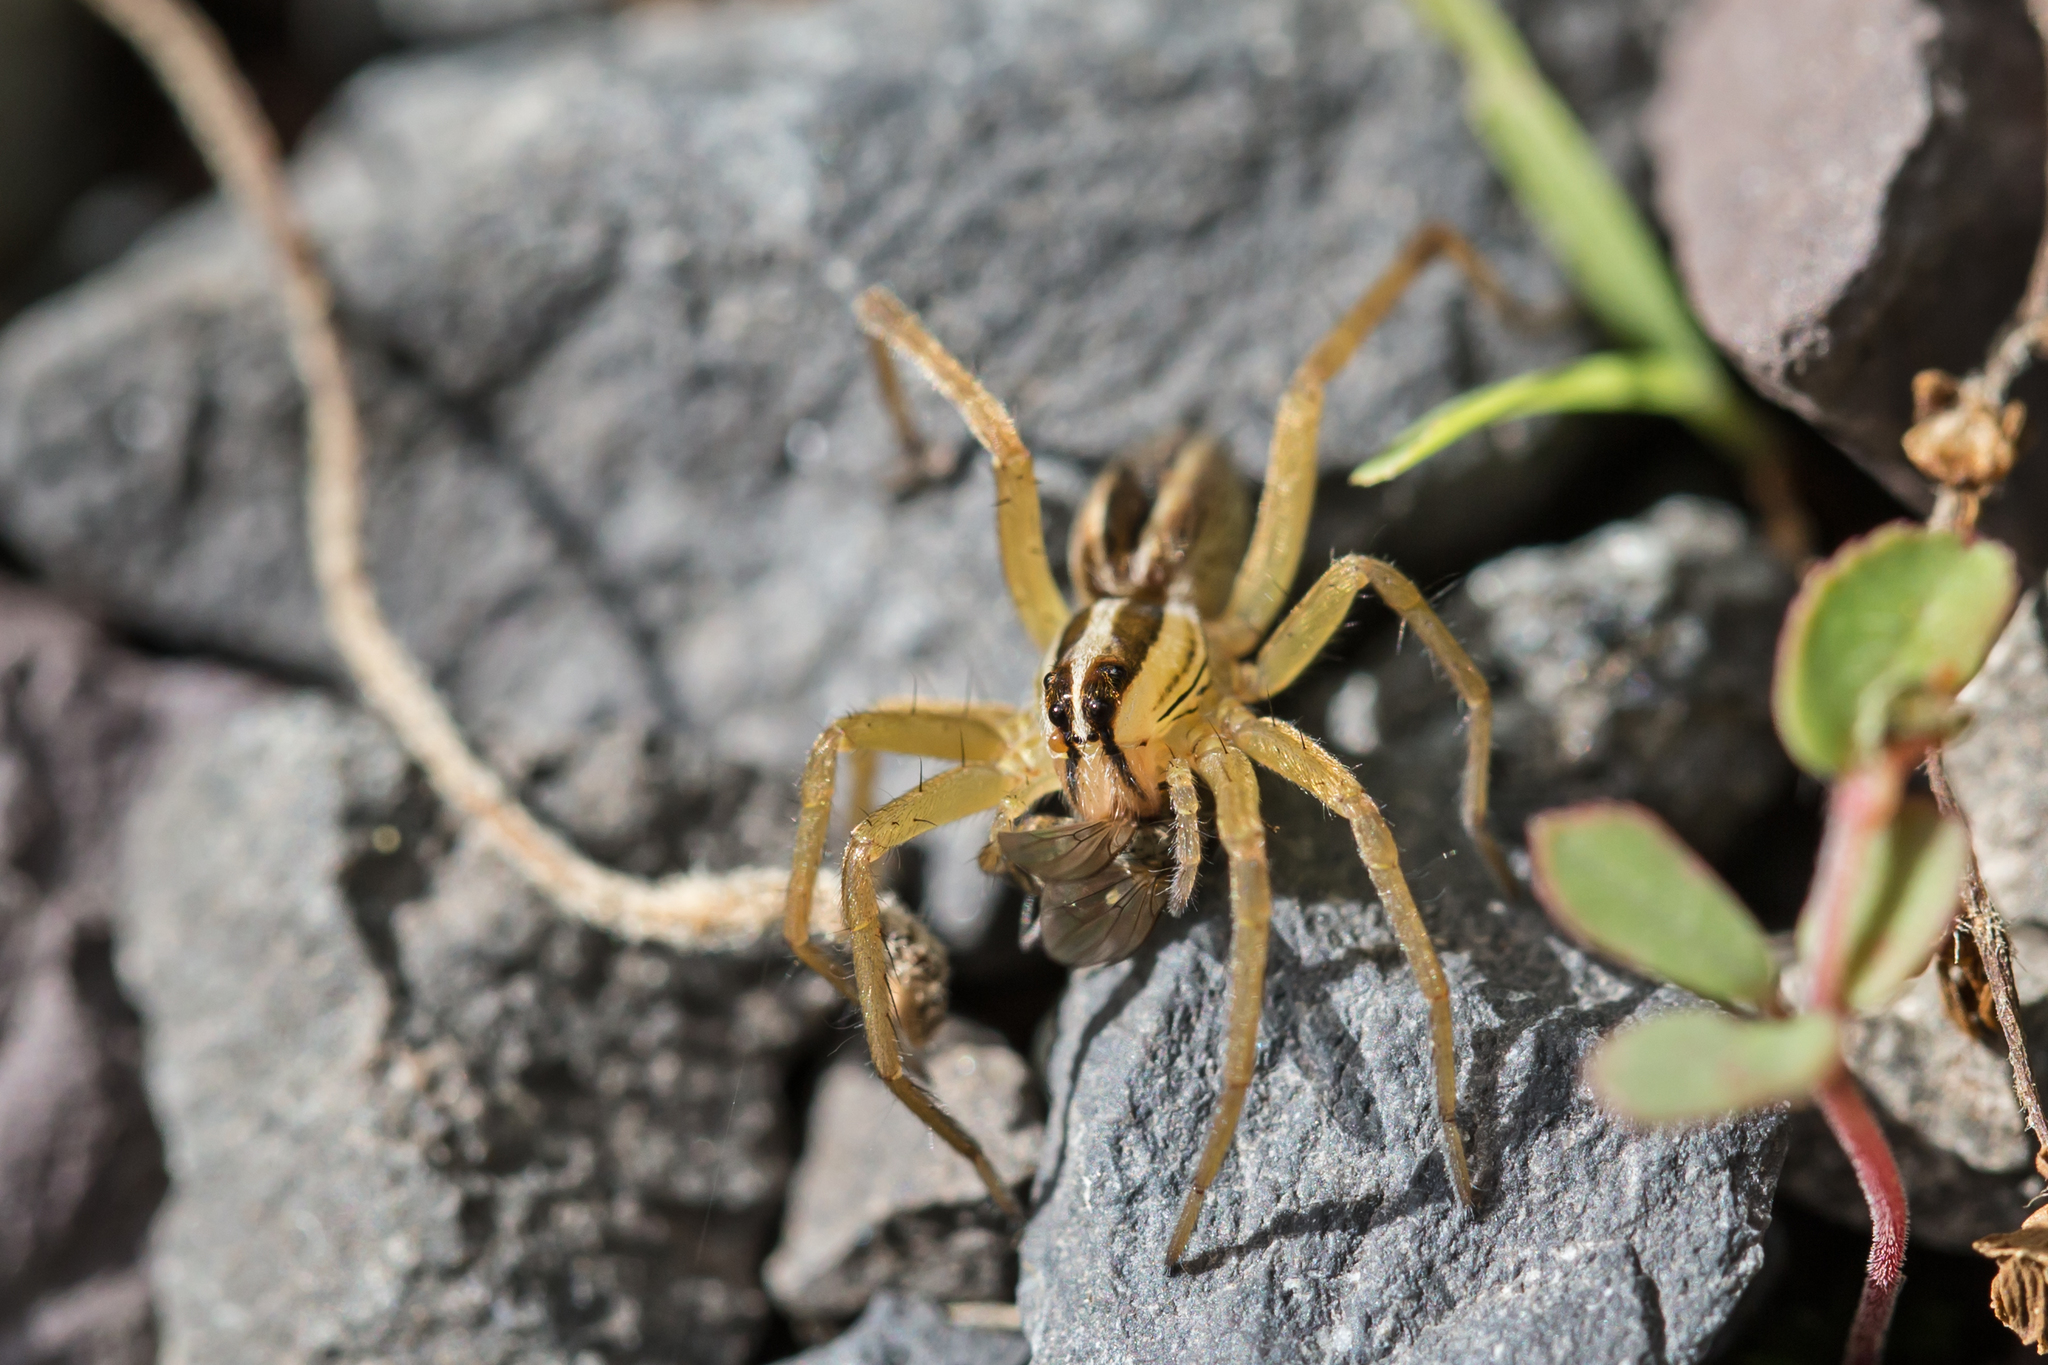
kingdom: Animalia
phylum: Arthropoda
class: Arachnida
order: Araneae
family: Lycosidae
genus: Rabidosa
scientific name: Rabidosa rabida
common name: Rabid wolf spider
